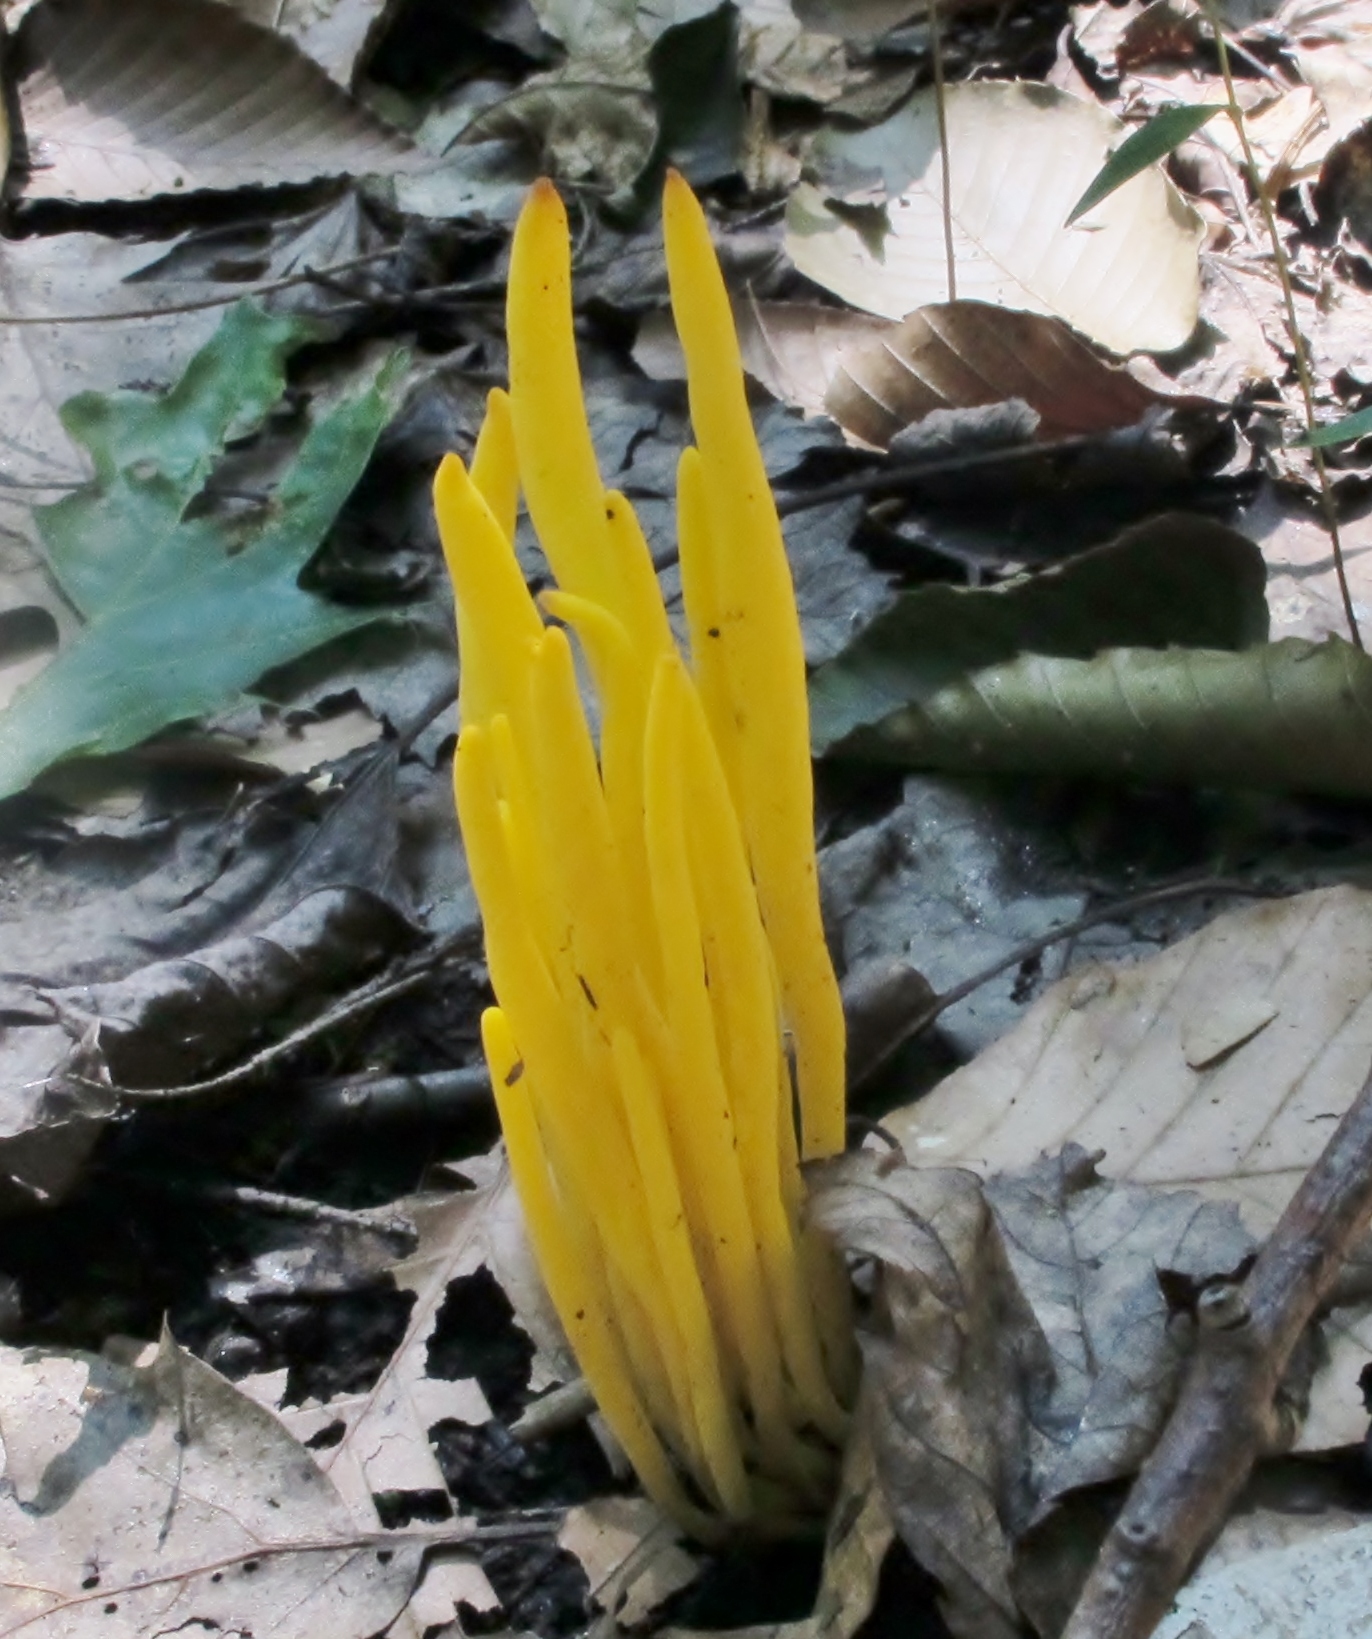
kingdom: Fungi
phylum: Basidiomycota
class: Agaricomycetes
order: Agaricales
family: Clavariaceae
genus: Clavulinopsis
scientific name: Clavulinopsis fusiformis
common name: Golden spindles
